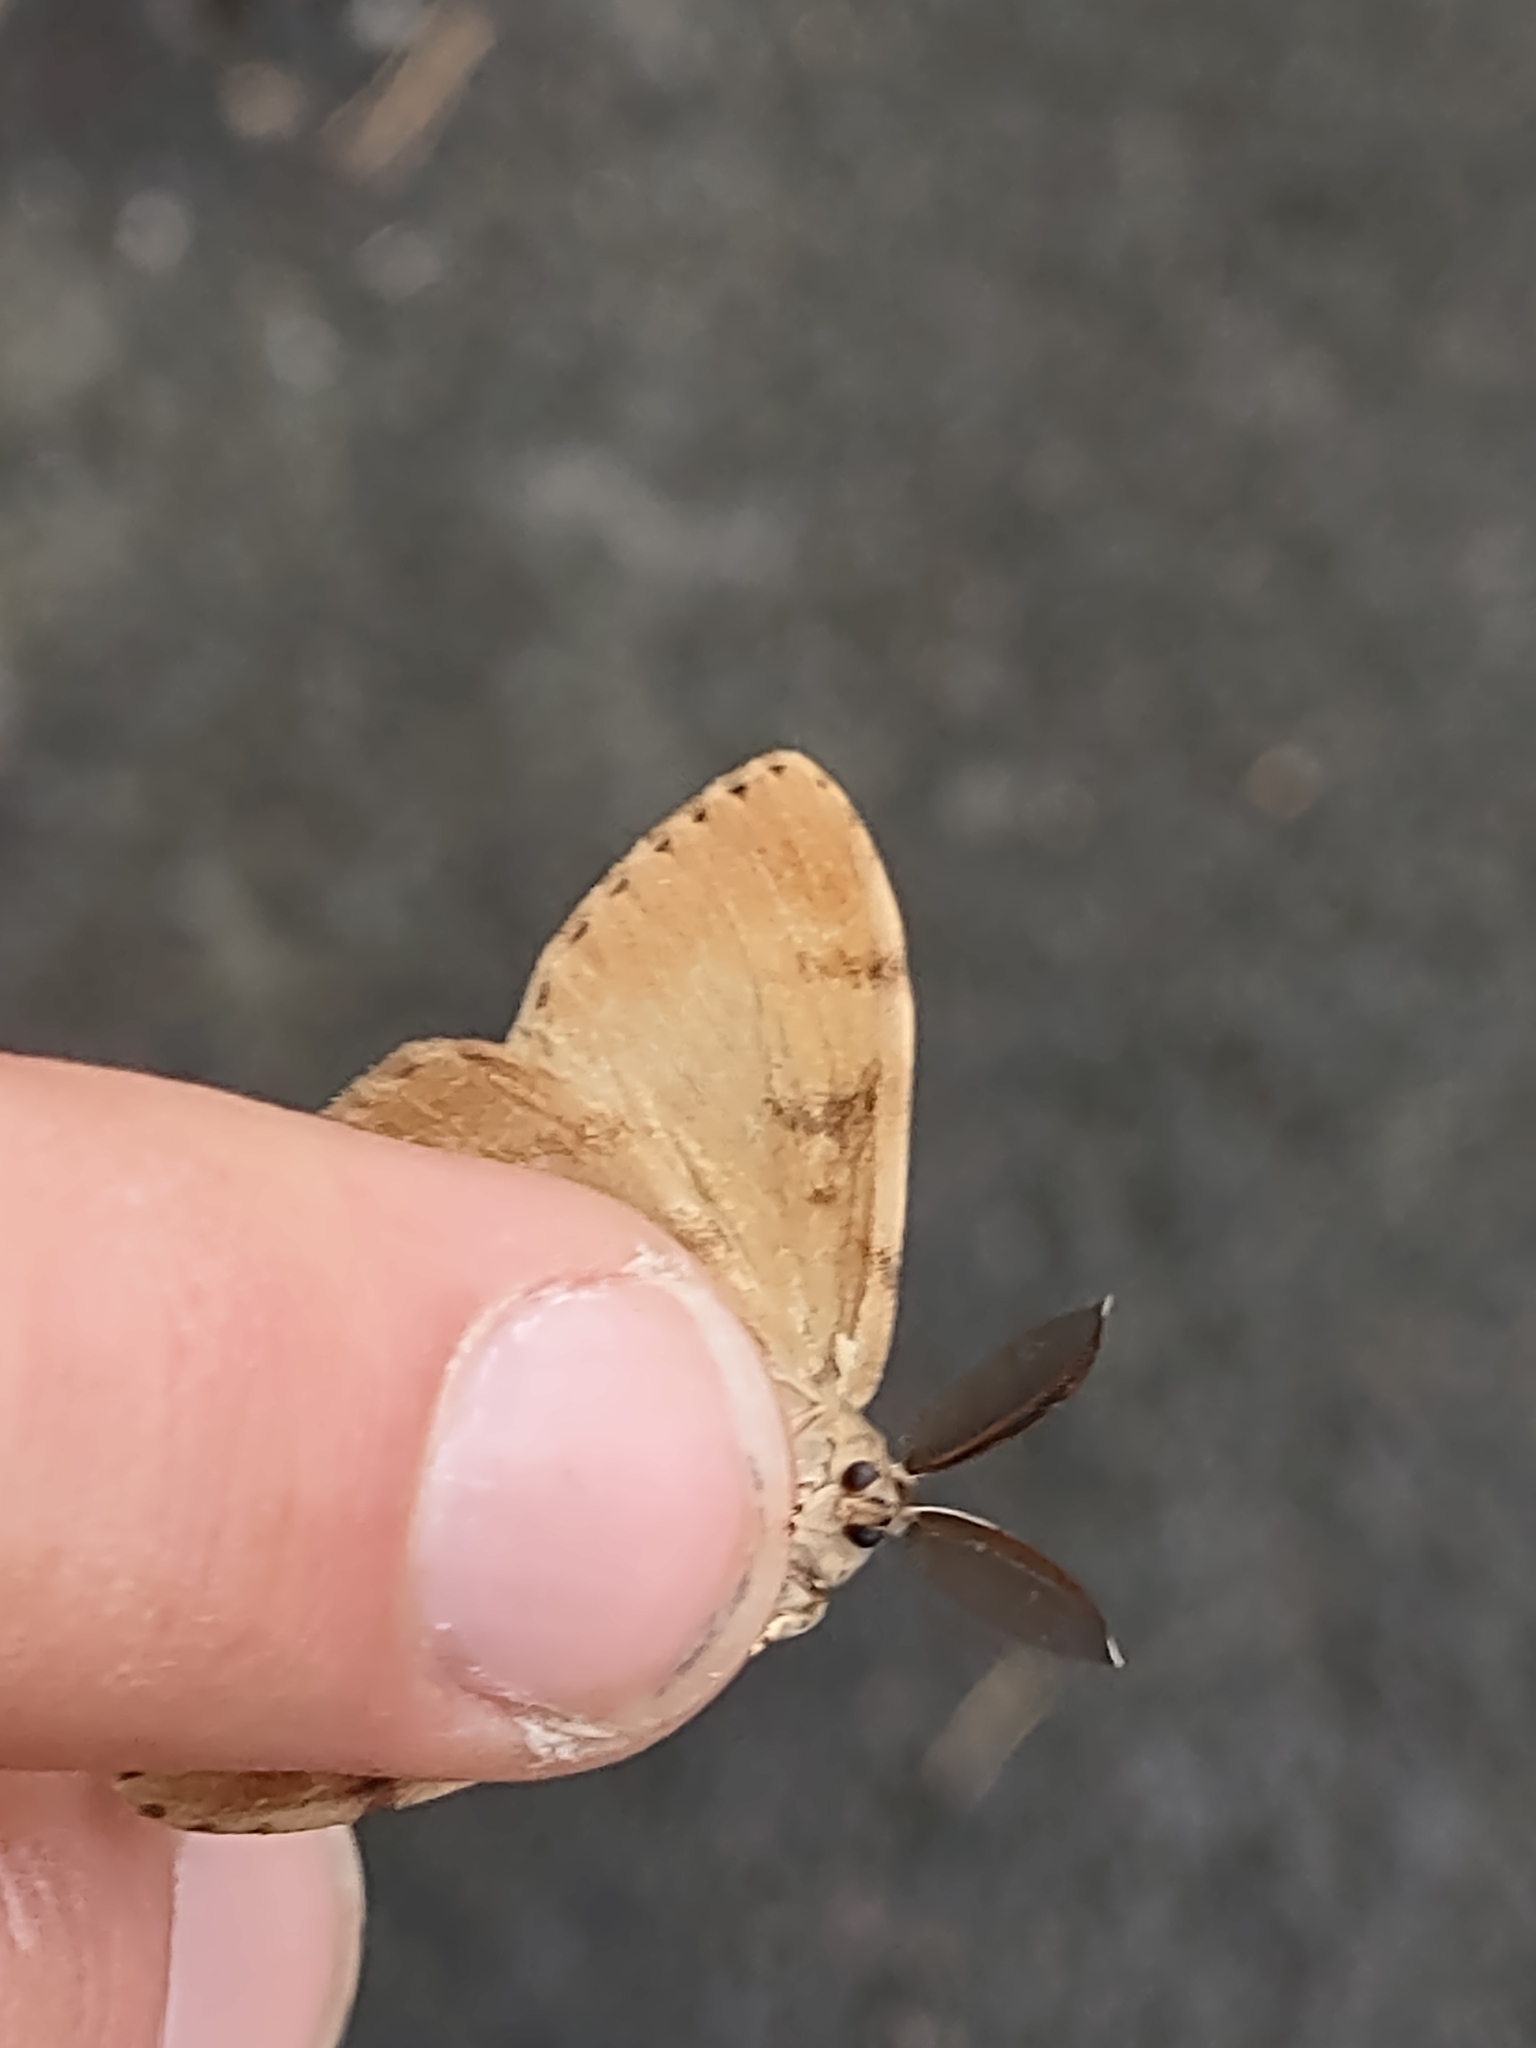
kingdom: Animalia
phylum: Arthropoda
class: Insecta
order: Lepidoptera
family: Erebidae
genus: Lymantria
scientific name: Lymantria dispar
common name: Gypsy moth
